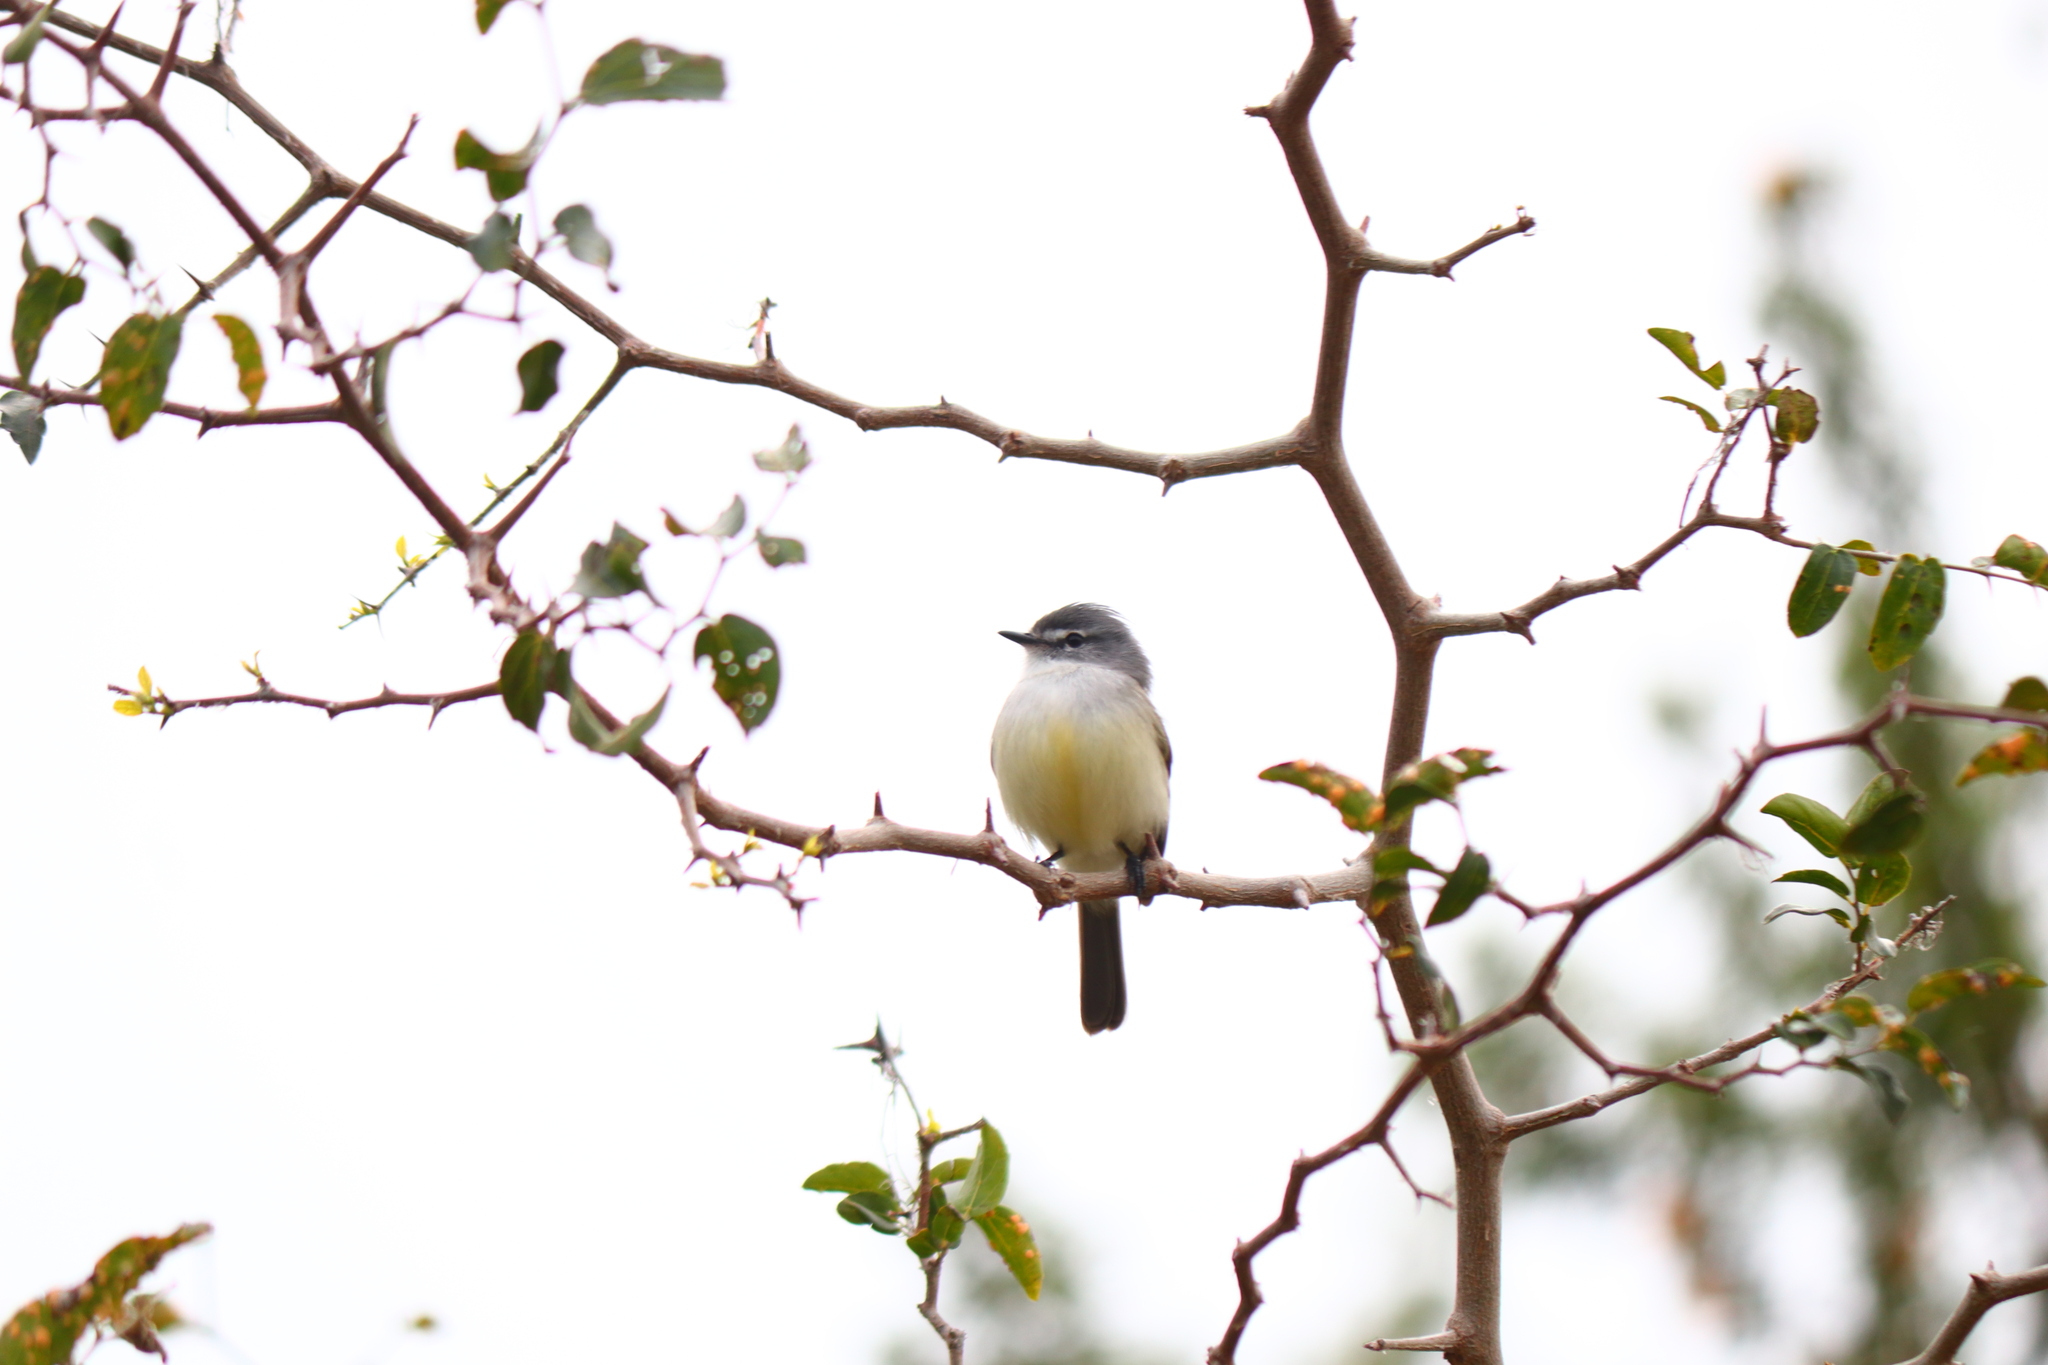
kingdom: Animalia
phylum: Chordata
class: Aves
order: Passeriformes
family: Tyrannidae
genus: Serpophaga
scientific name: Serpophaga subcristata
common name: White-crested tyrannulet
